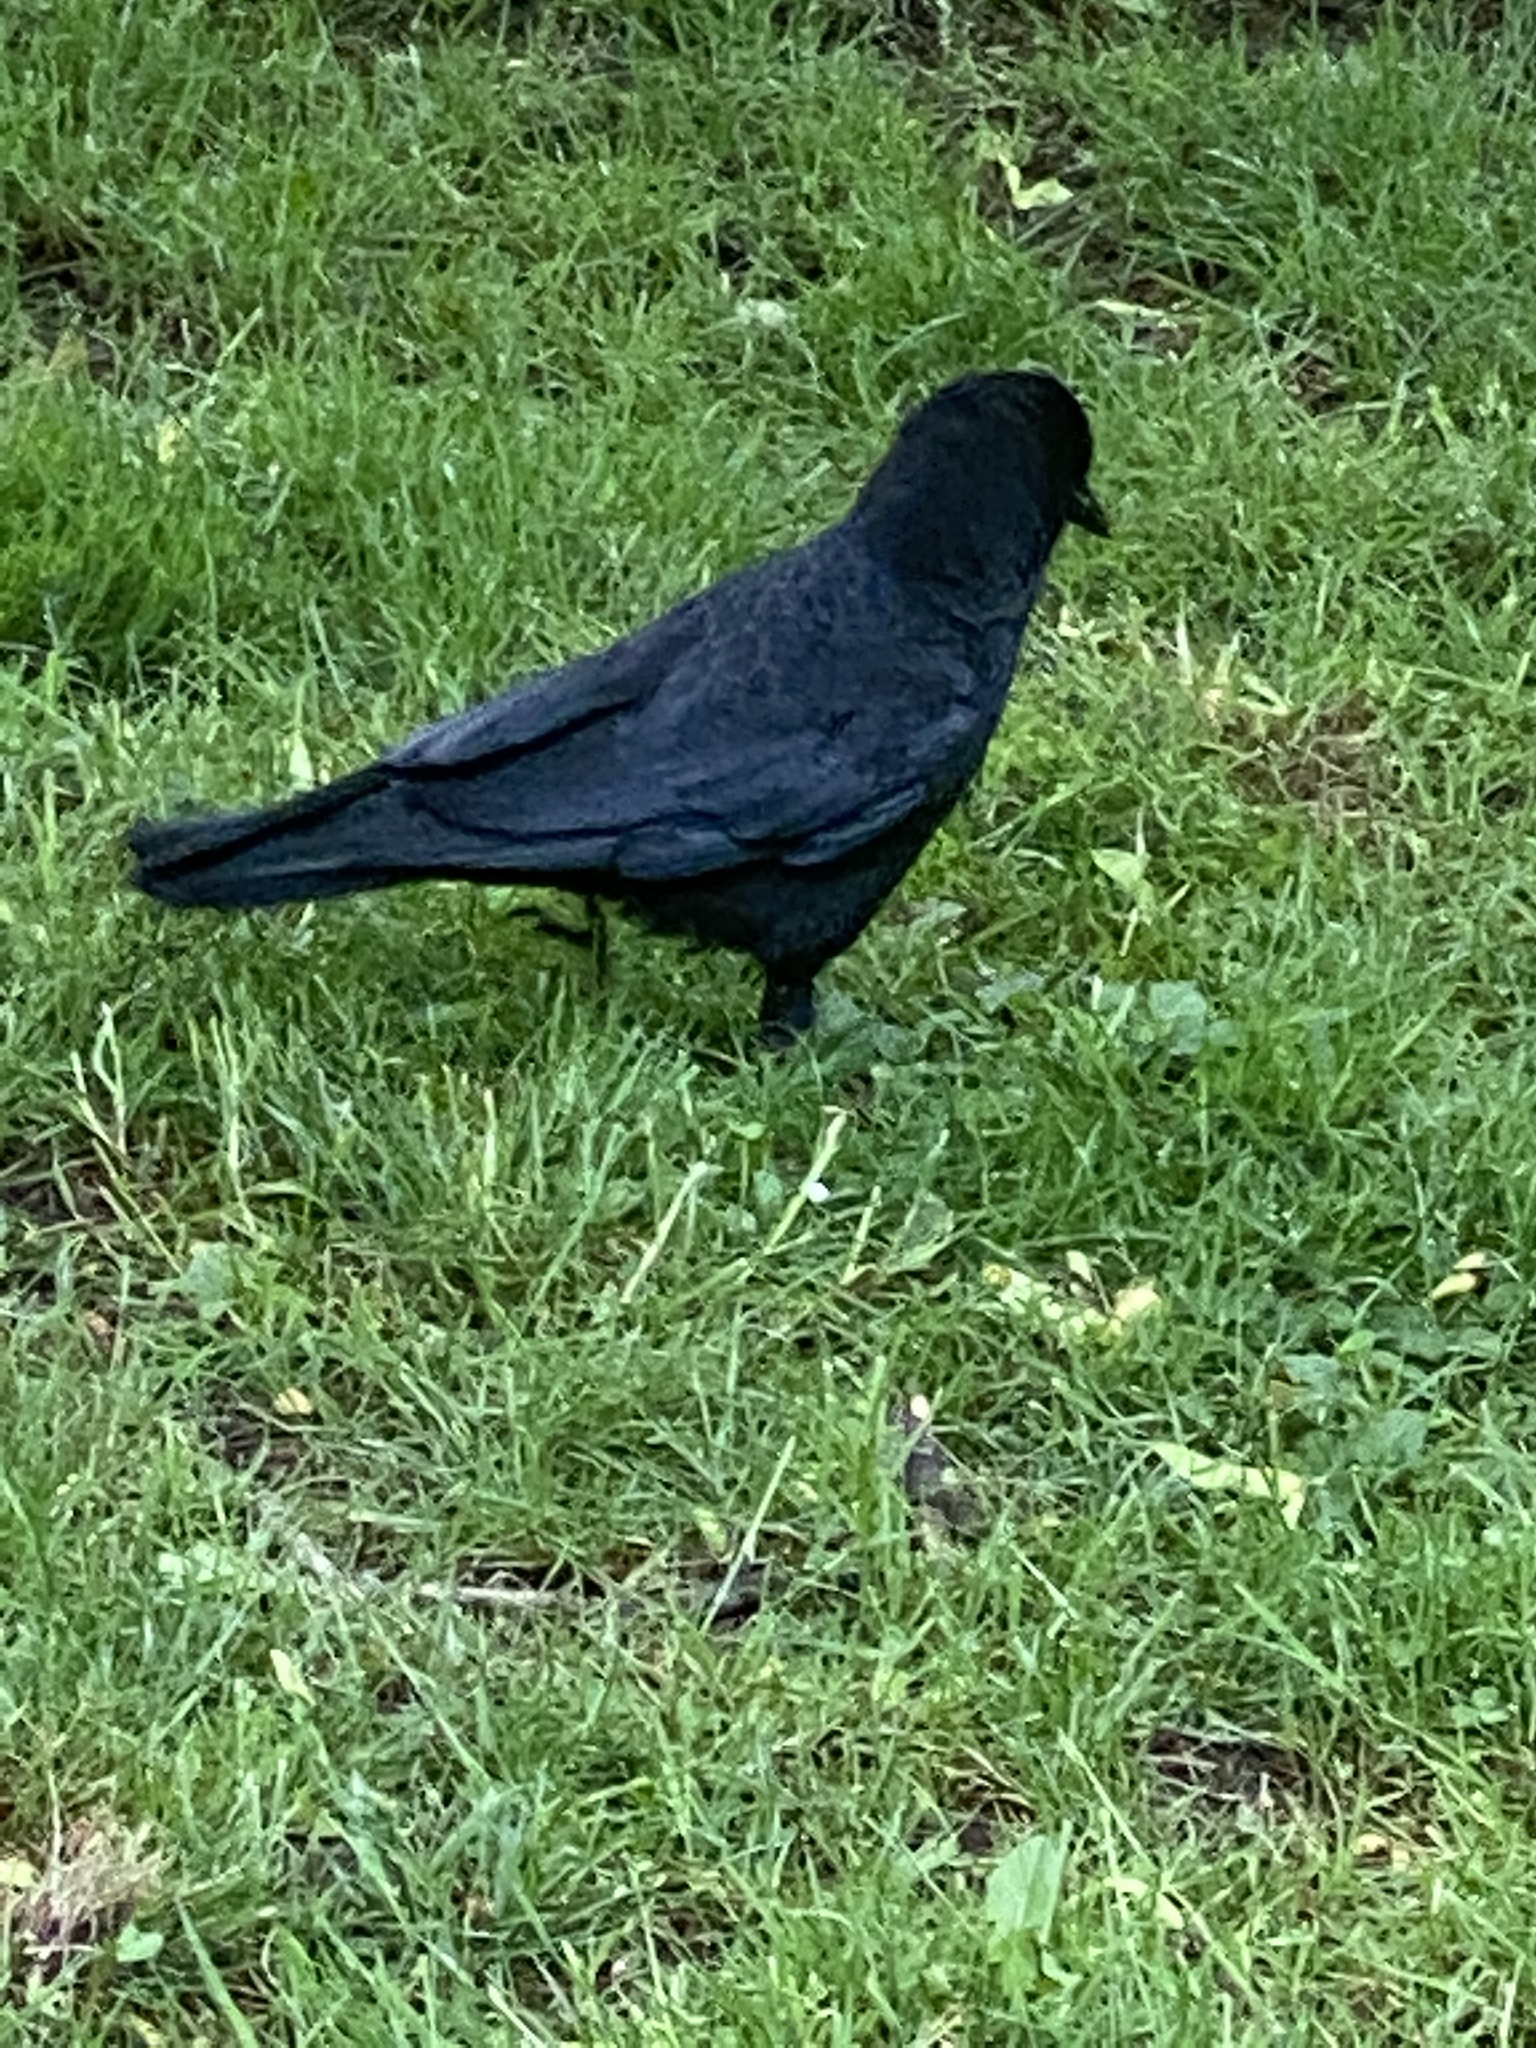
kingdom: Animalia
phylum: Chordata
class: Aves
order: Passeriformes
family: Corvidae
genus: Corvus
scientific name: Corvus brachyrhynchos
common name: American crow
